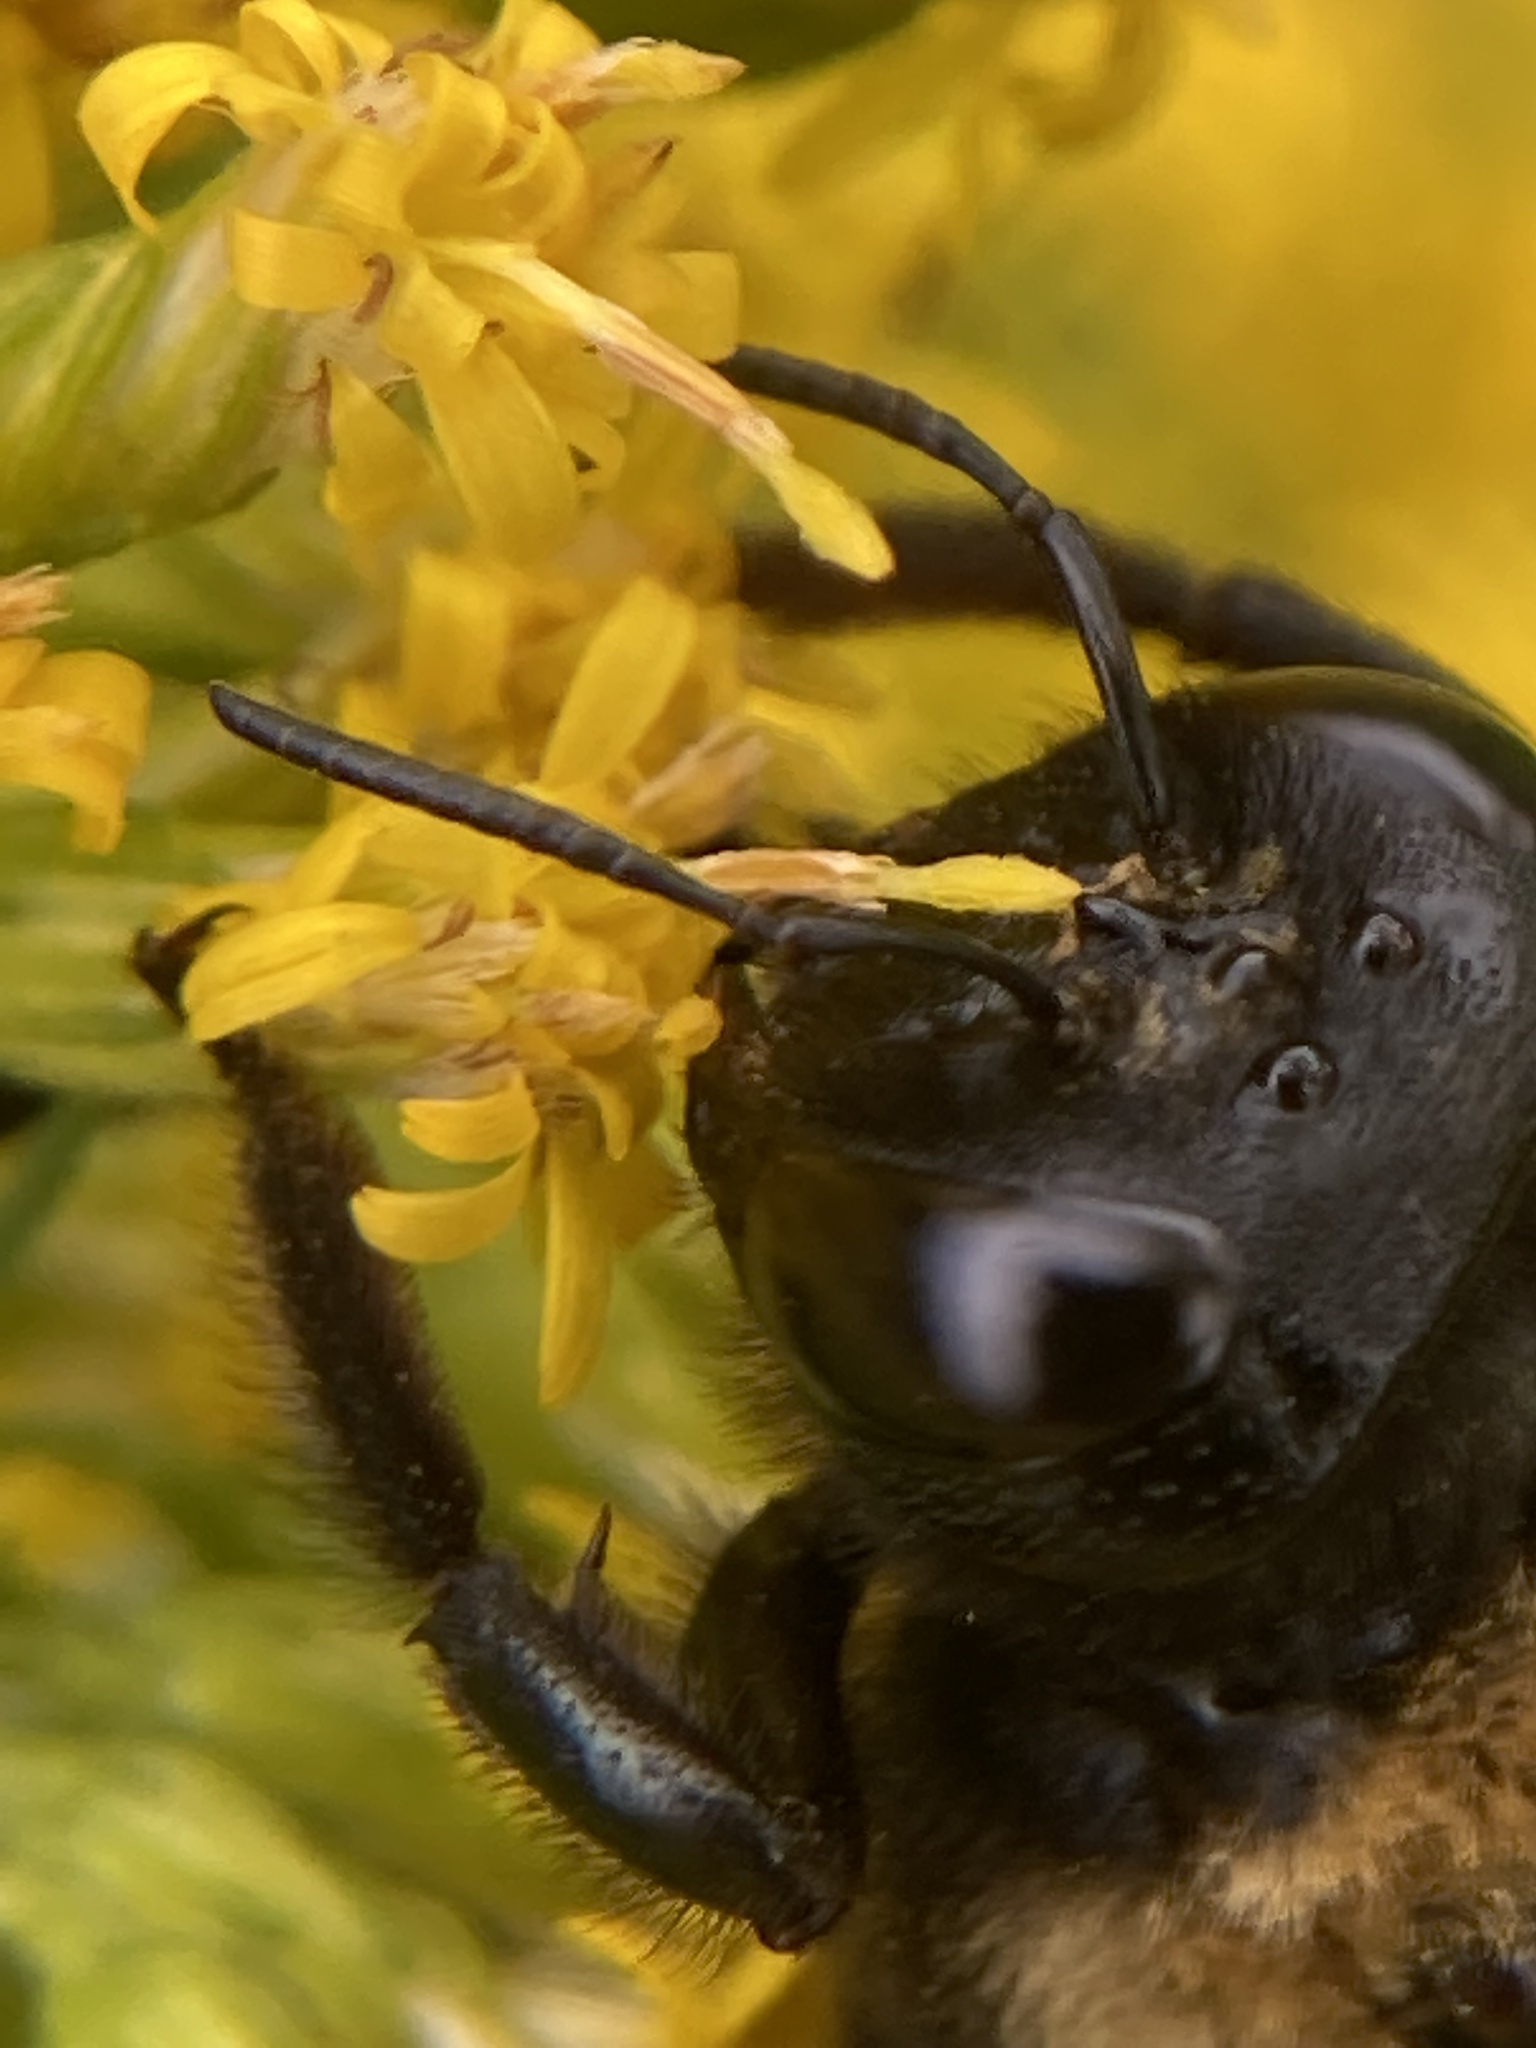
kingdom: Animalia
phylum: Arthropoda
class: Insecta
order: Hymenoptera
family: Apidae
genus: Xylocopa
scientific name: Xylocopa virginica
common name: Carpenter bee
